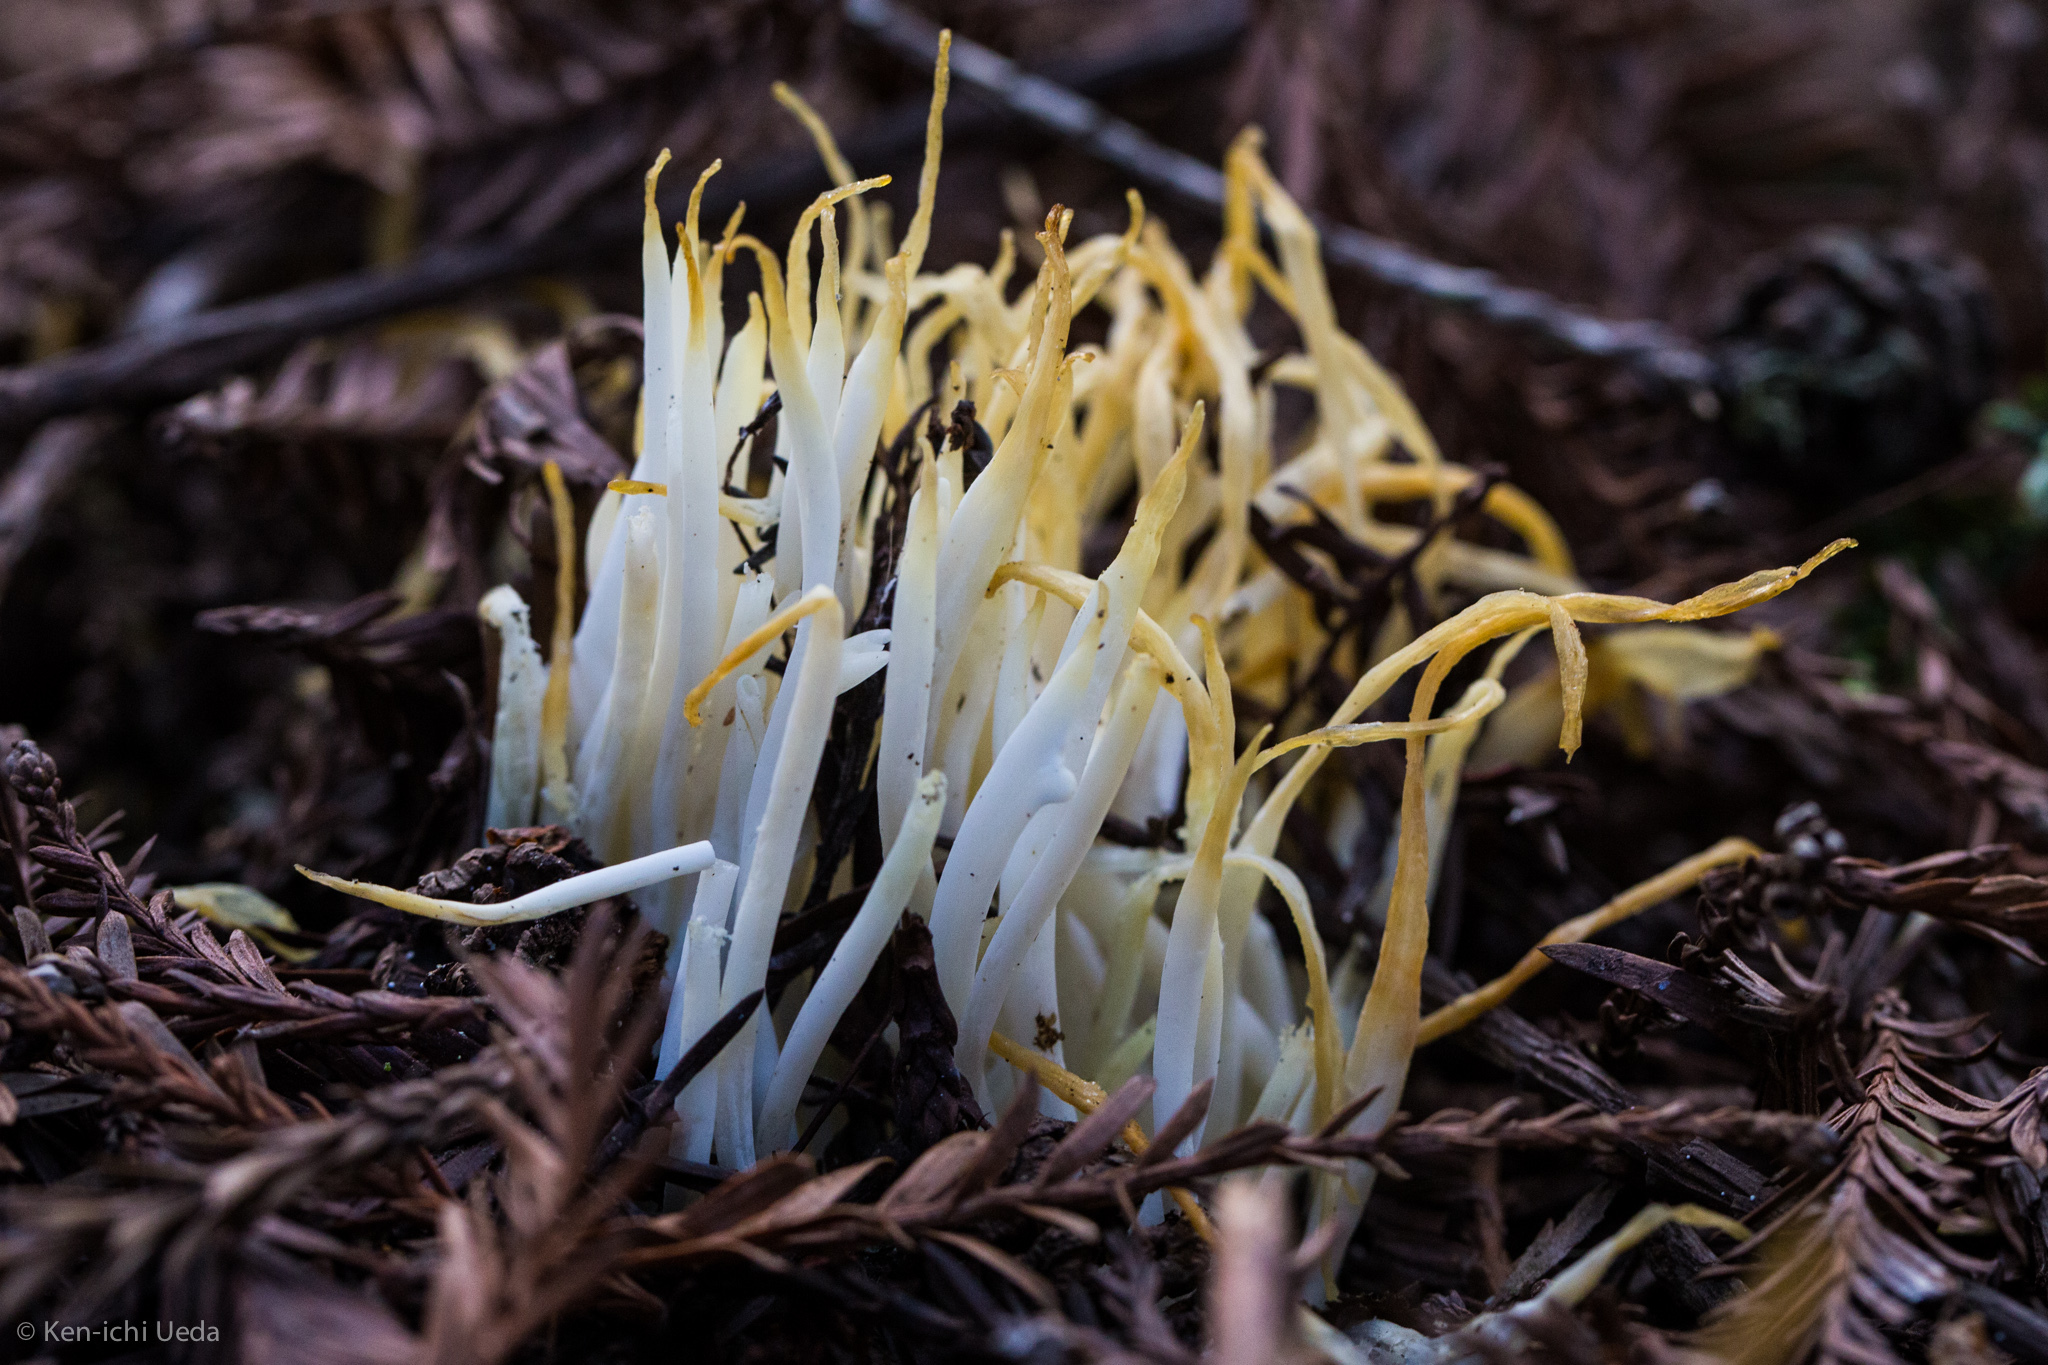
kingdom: Fungi
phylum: Basidiomycota
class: Agaricomycetes
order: Agaricales
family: Clavariaceae
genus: Clavaria
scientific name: Clavaria fragilis
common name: White spindles
